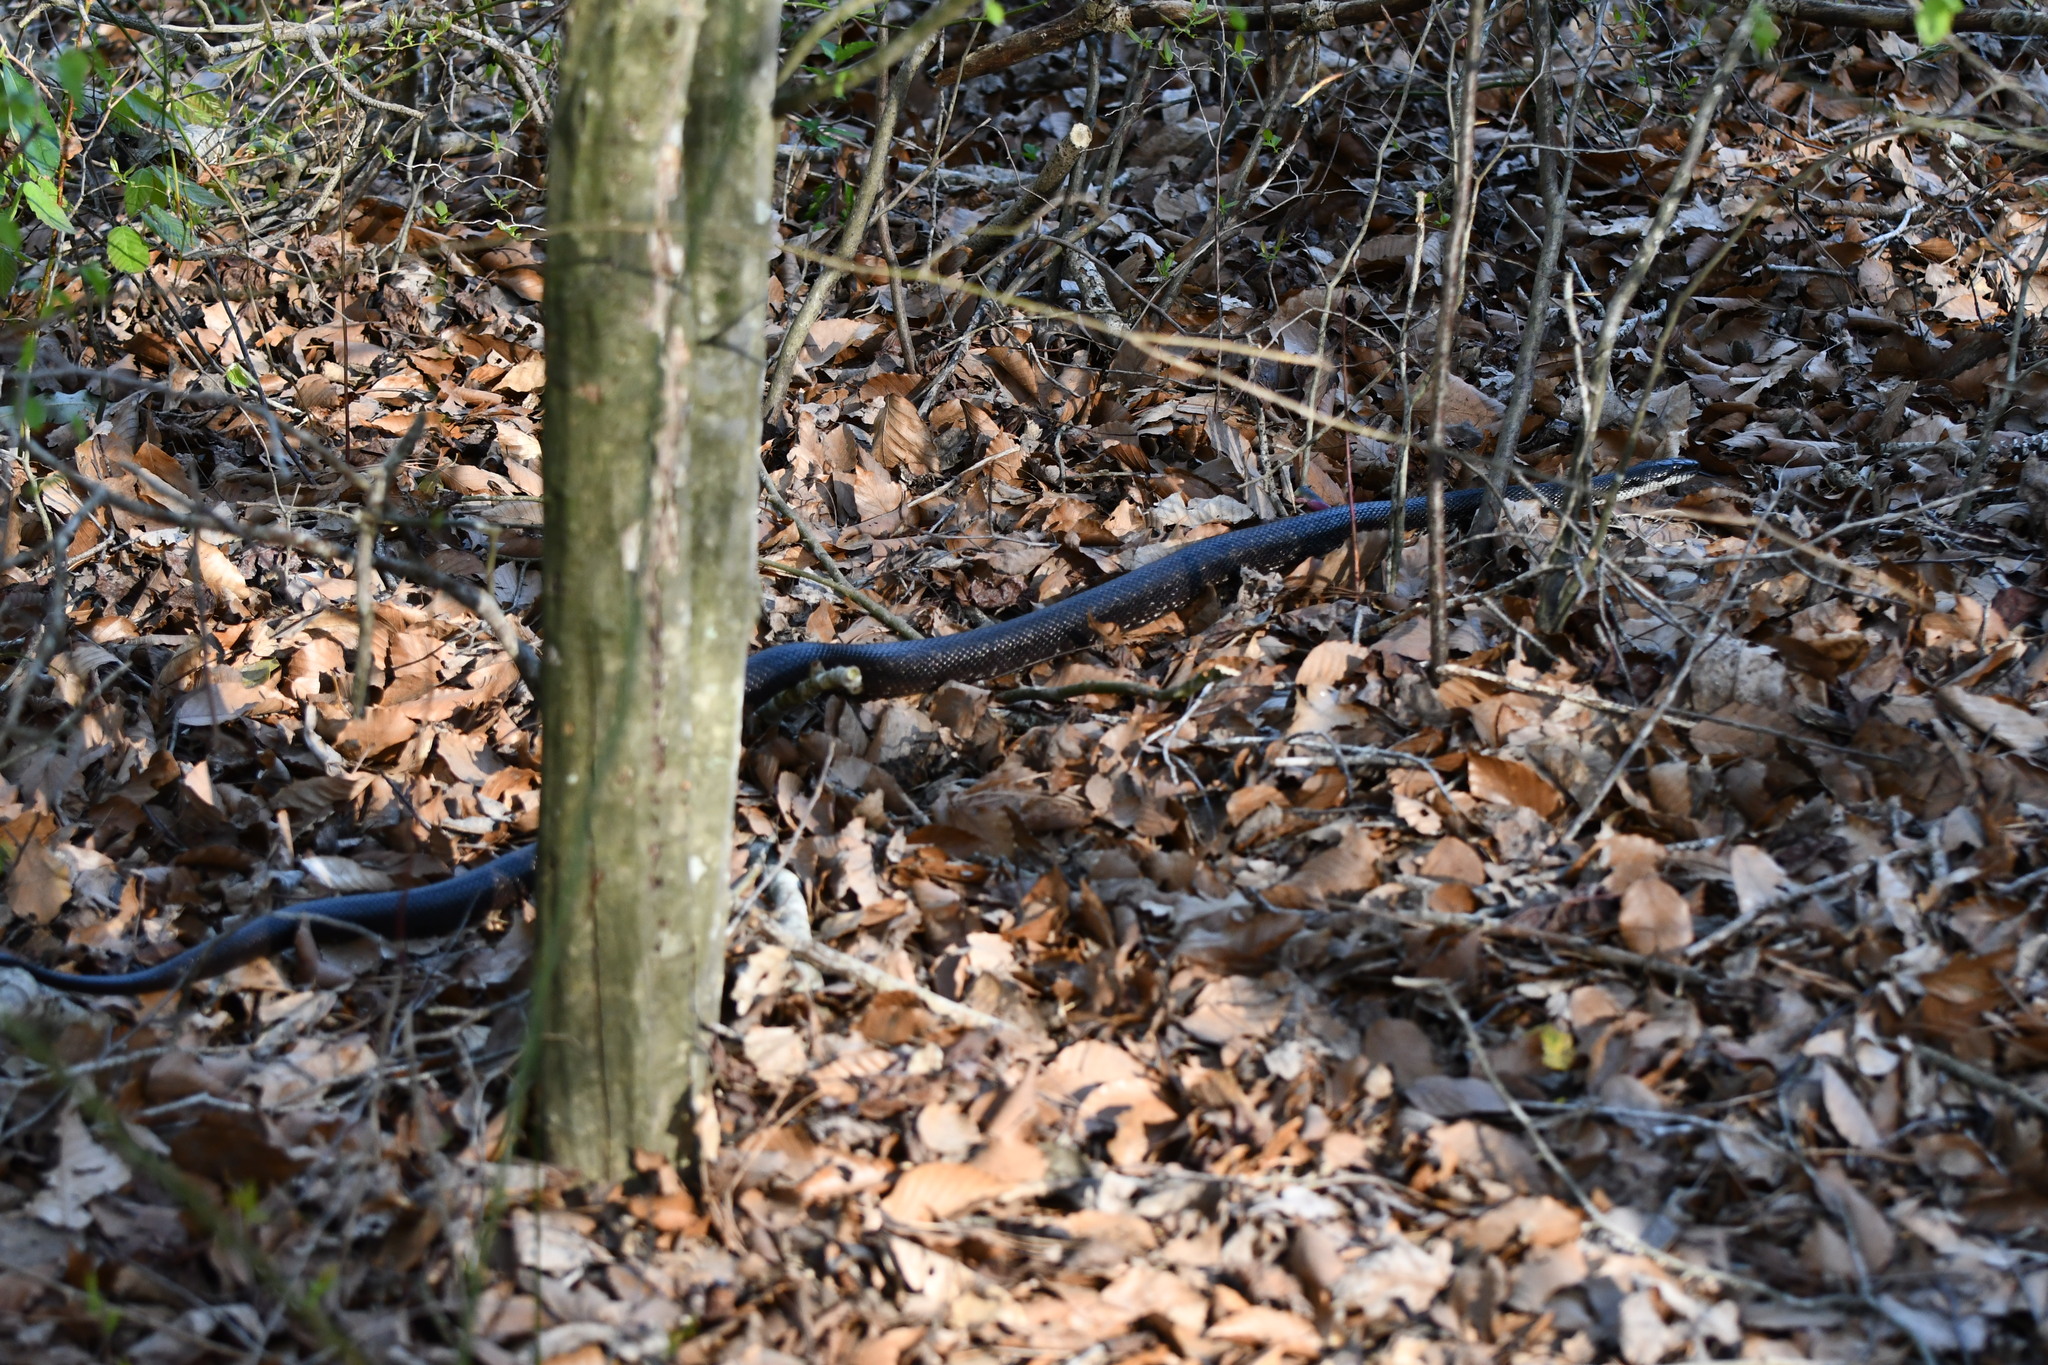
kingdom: Animalia
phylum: Chordata
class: Squamata
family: Colubridae
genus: Pantherophis
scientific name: Pantherophis
